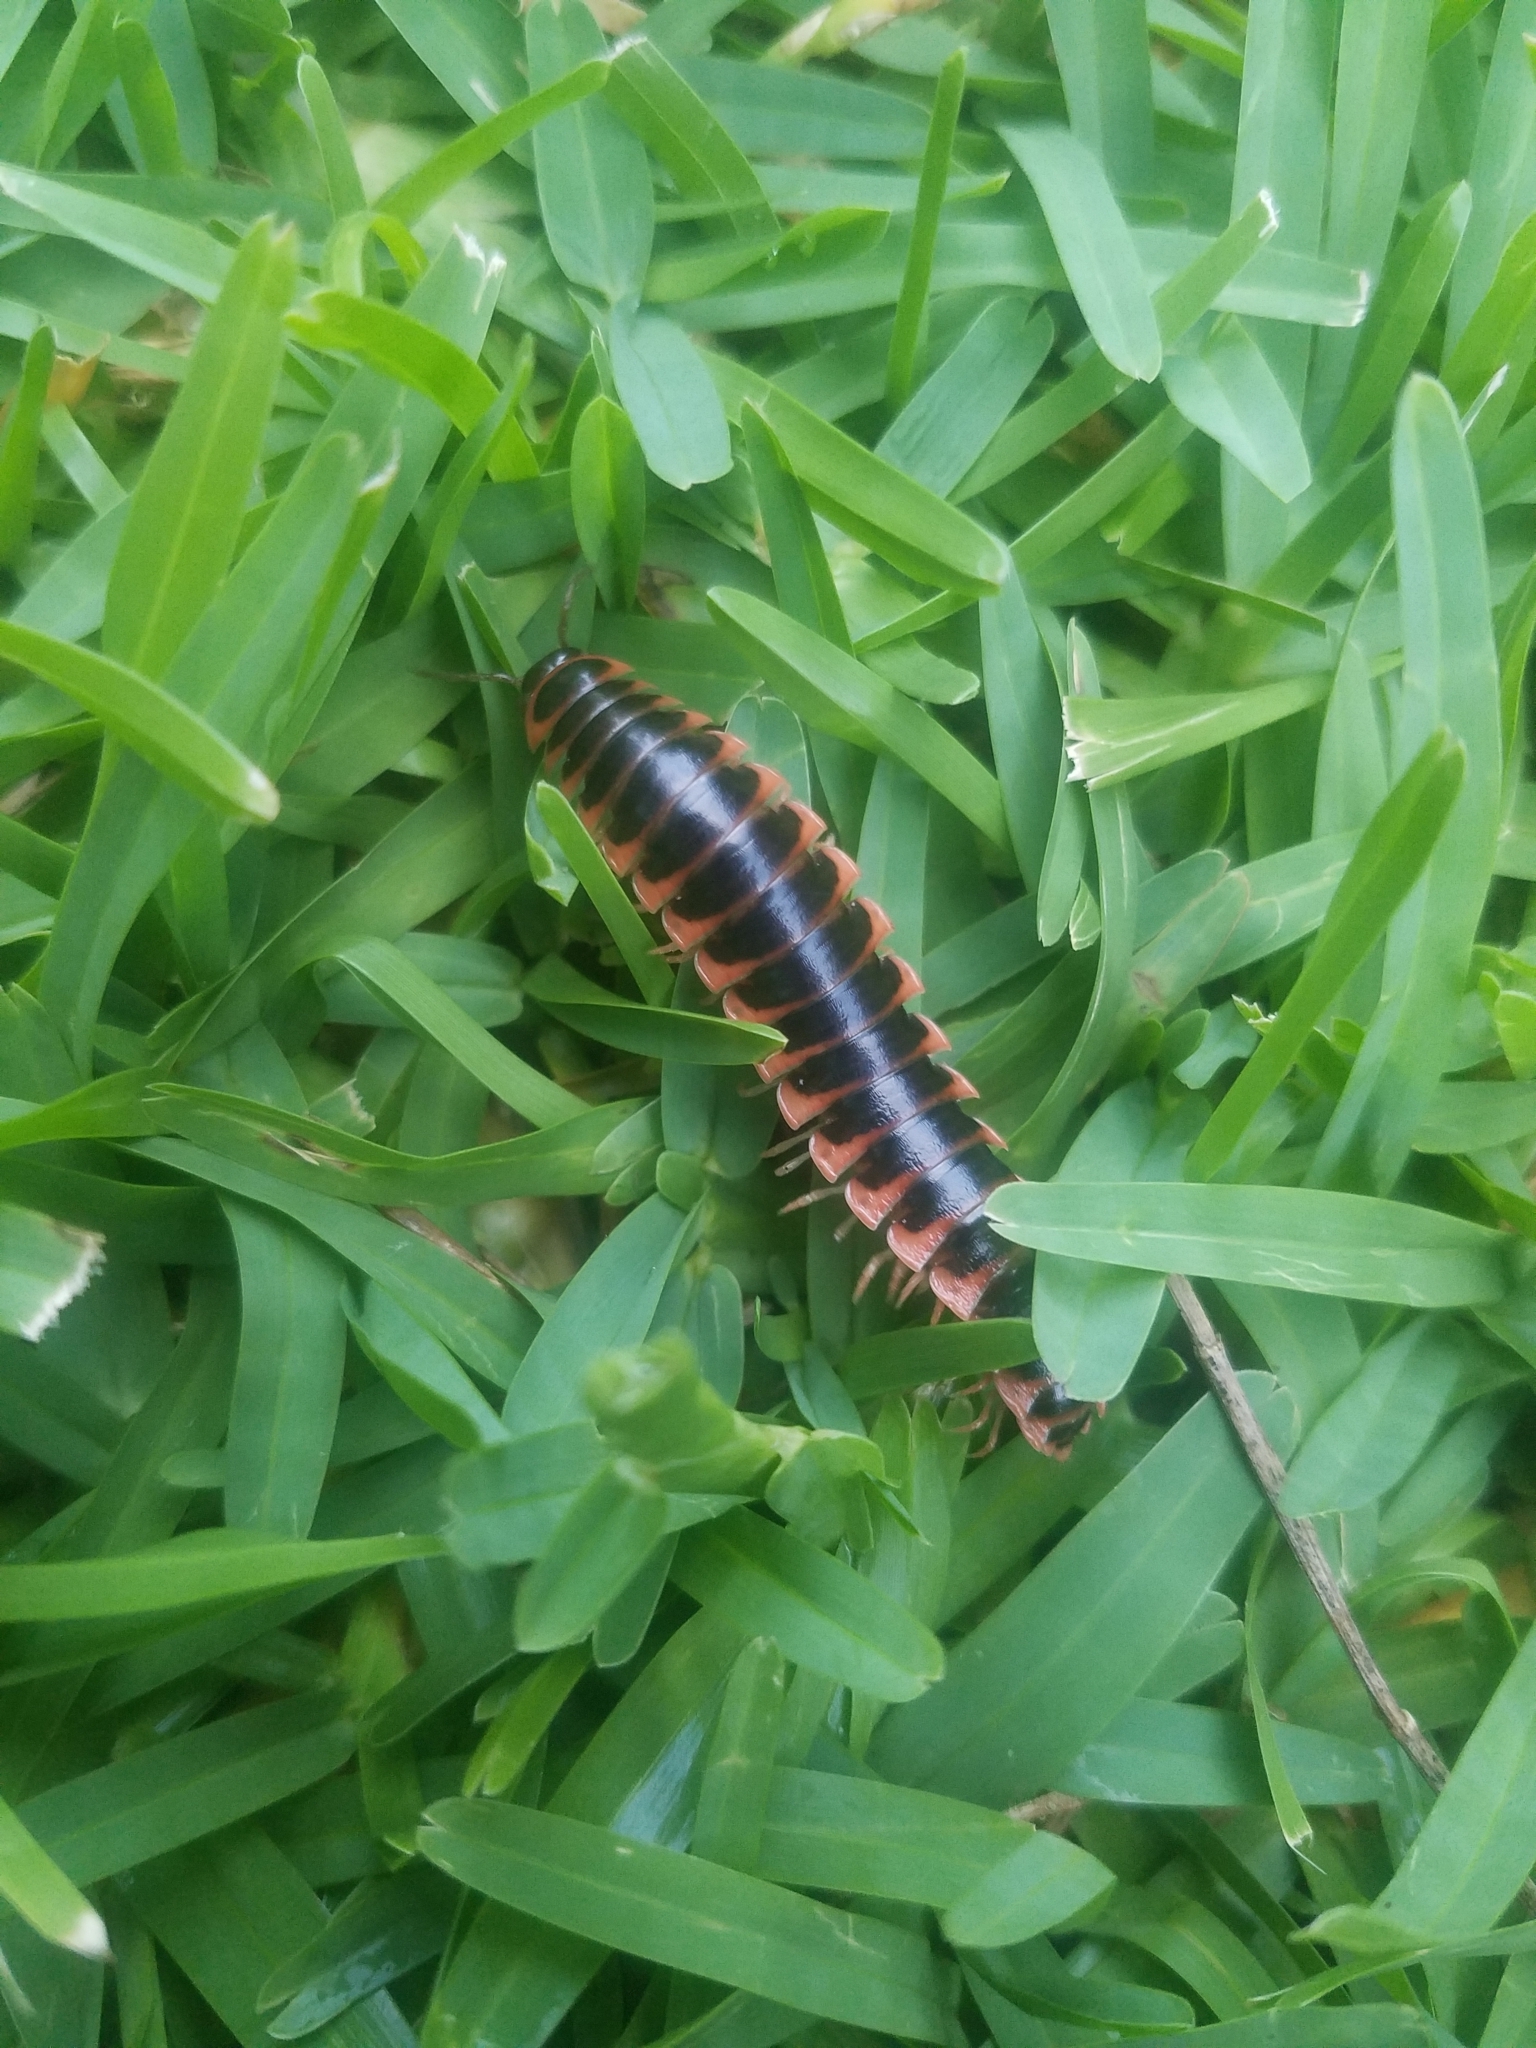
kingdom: Animalia
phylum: Arthropoda
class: Diplopoda
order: Polydesmida
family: Xystodesmidae
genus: Apheloria
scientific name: Apheloria virginiensis
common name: Black-and-gold flat millipede
